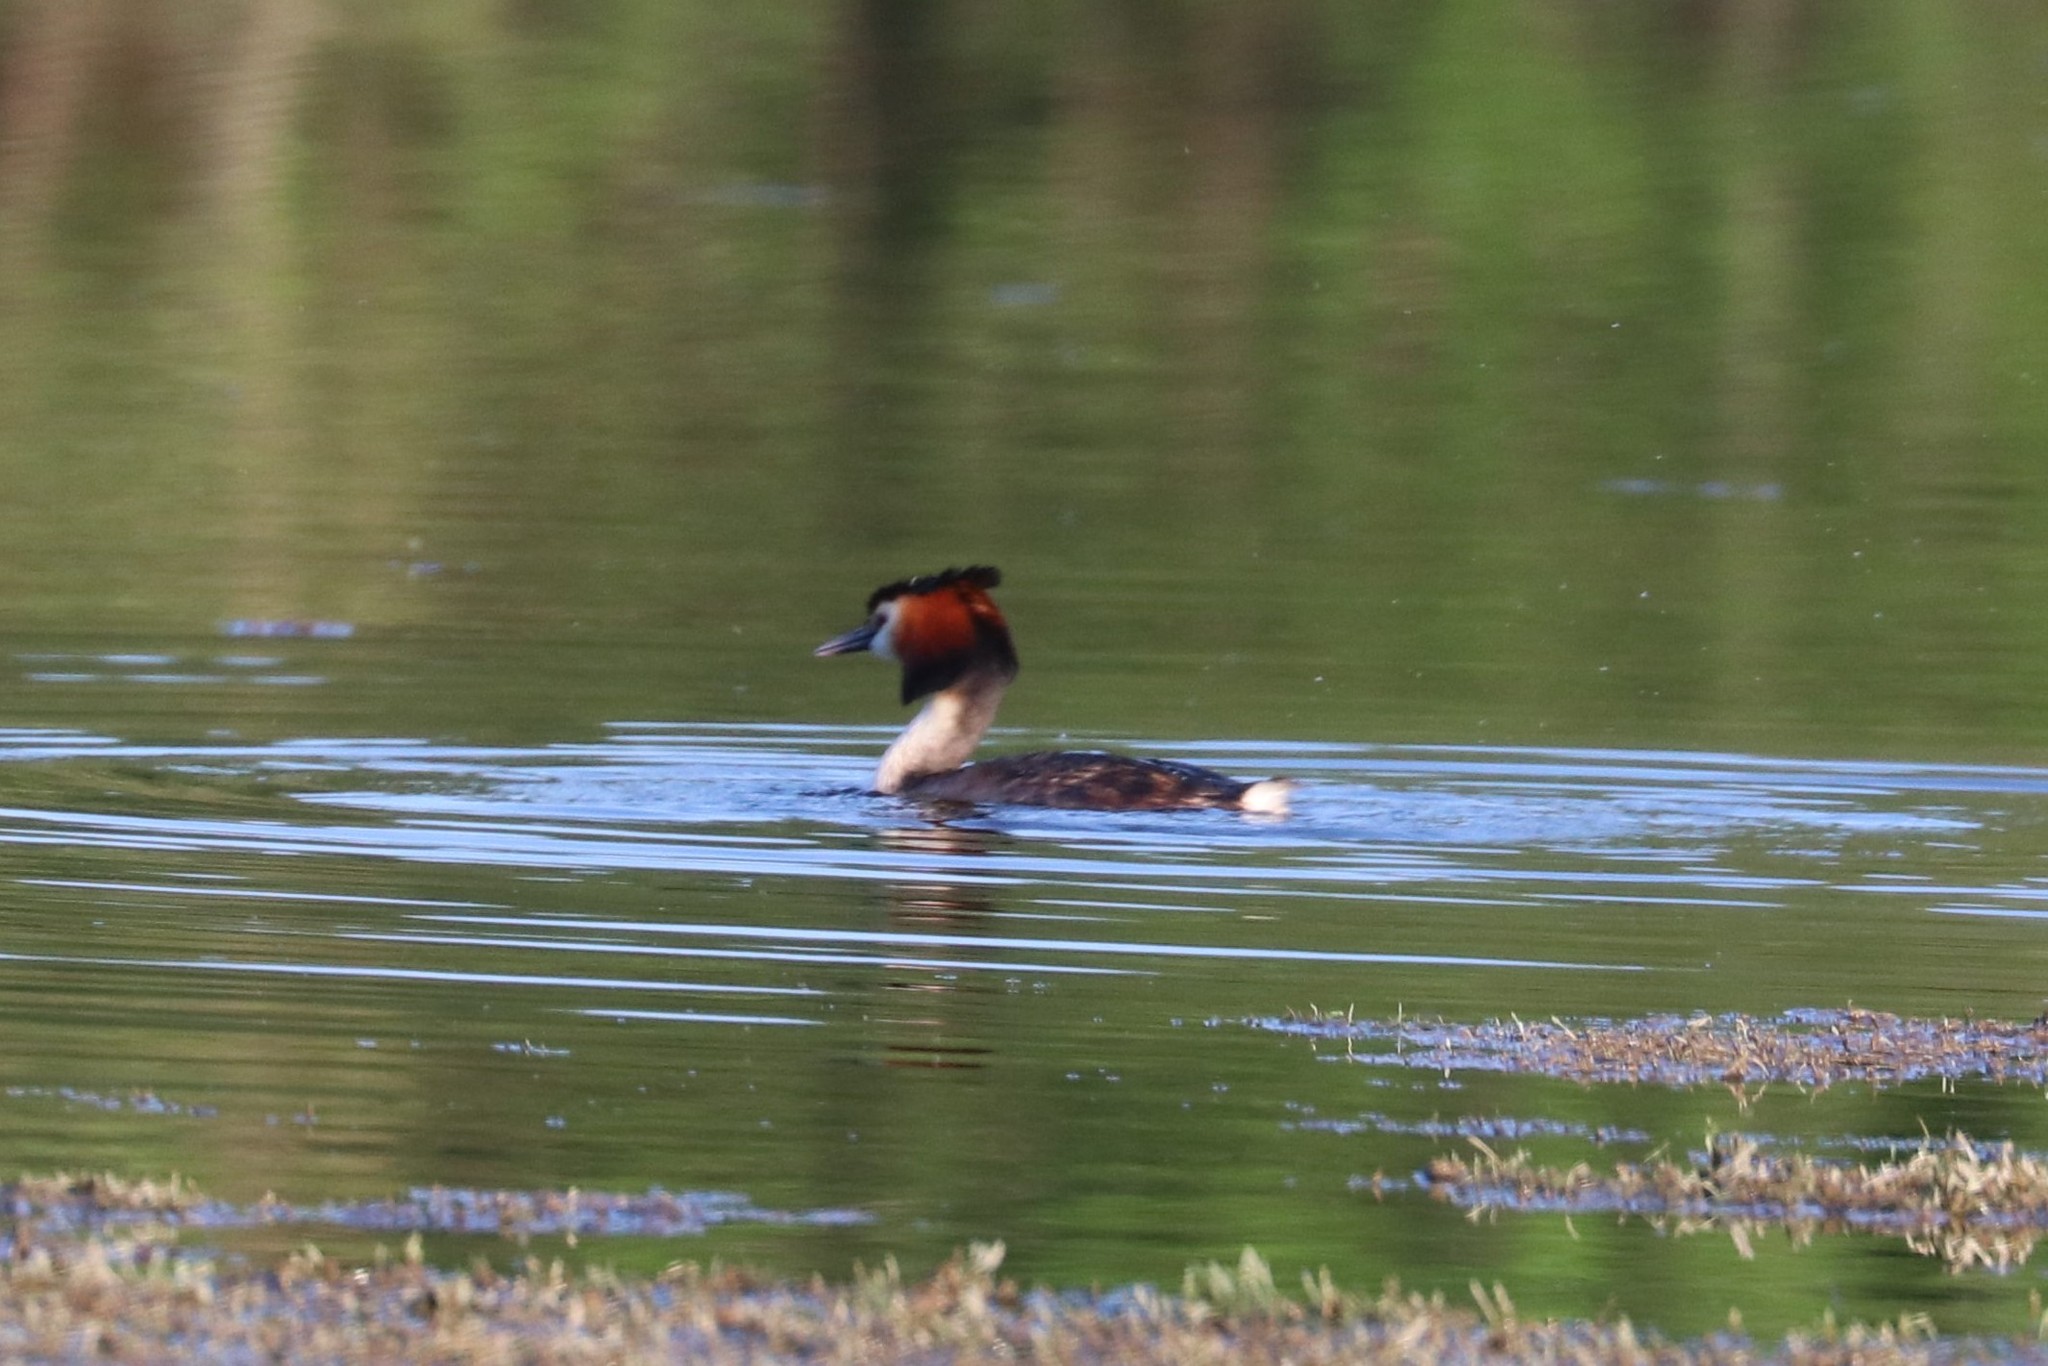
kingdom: Animalia
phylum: Chordata
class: Aves
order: Podicipediformes
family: Podicipedidae
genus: Podiceps
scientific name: Podiceps cristatus
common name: Great crested grebe
